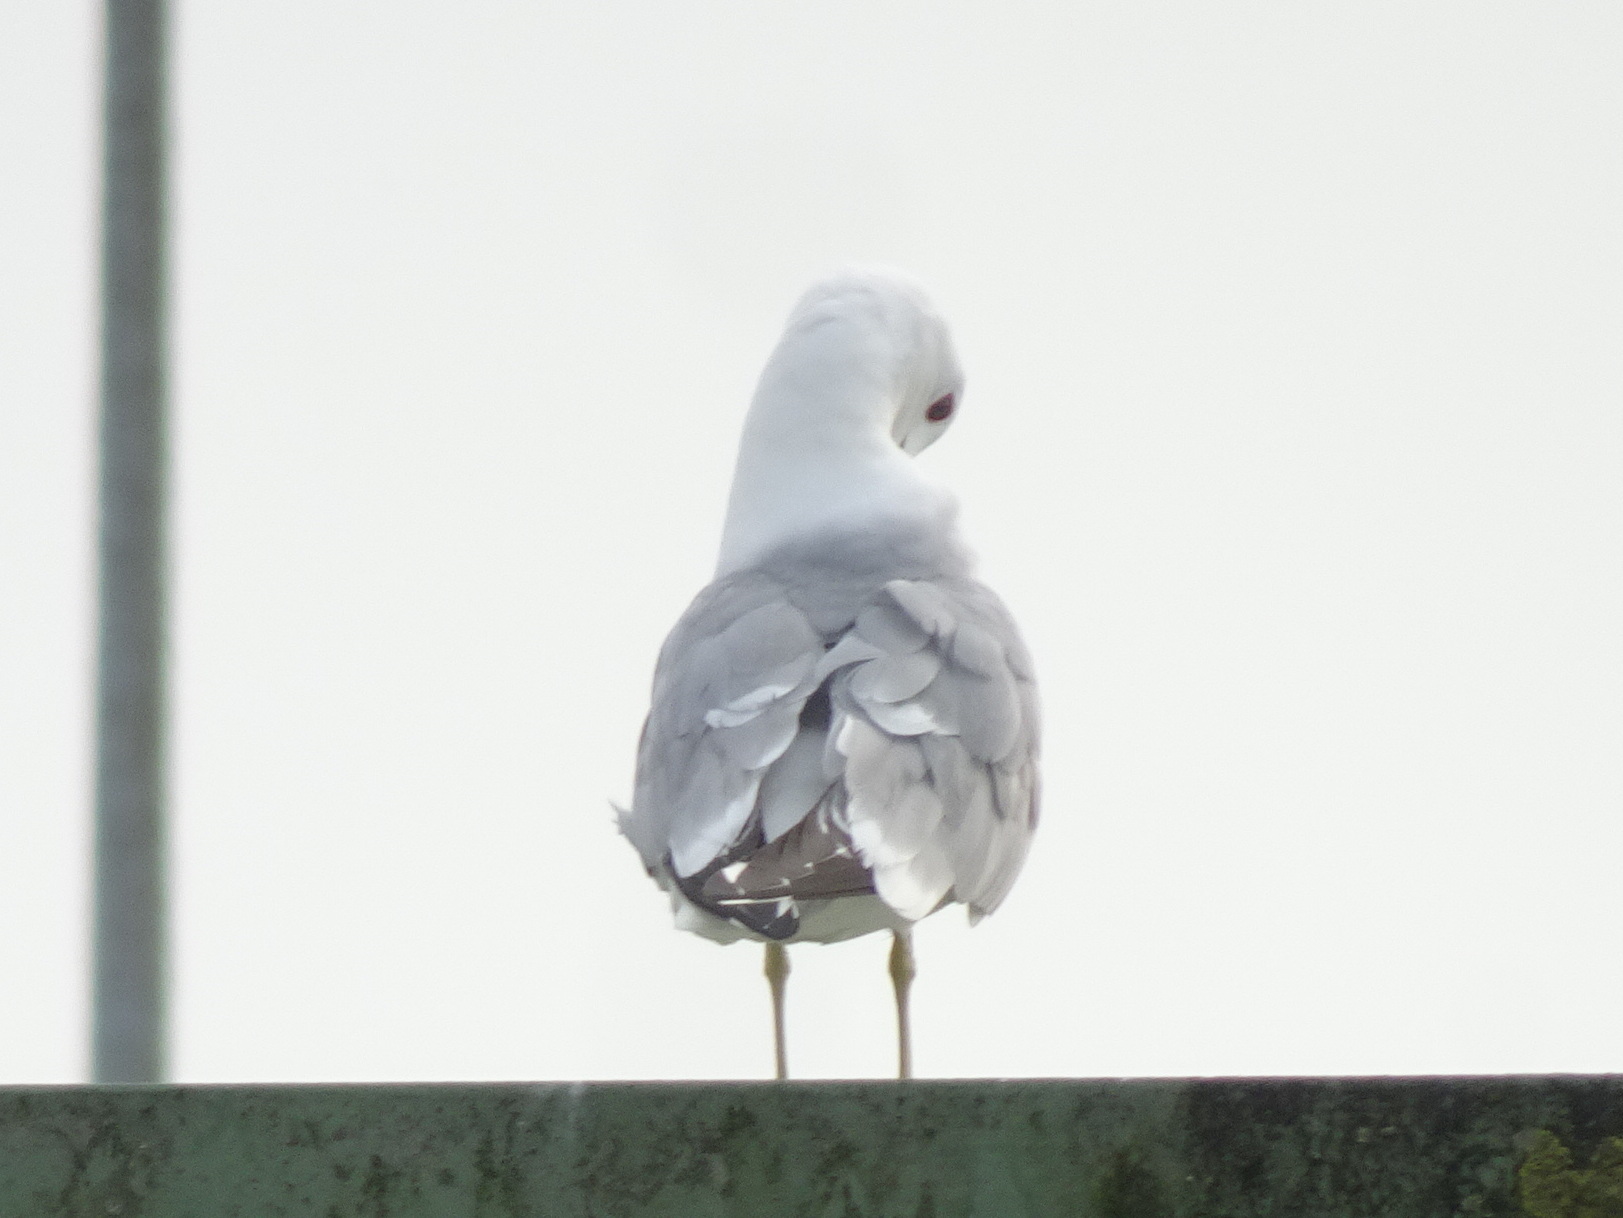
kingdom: Animalia
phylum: Chordata
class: Aves
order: Charadriiformes
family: Laridae
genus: Larus
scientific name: Larus canus
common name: Mew gull
